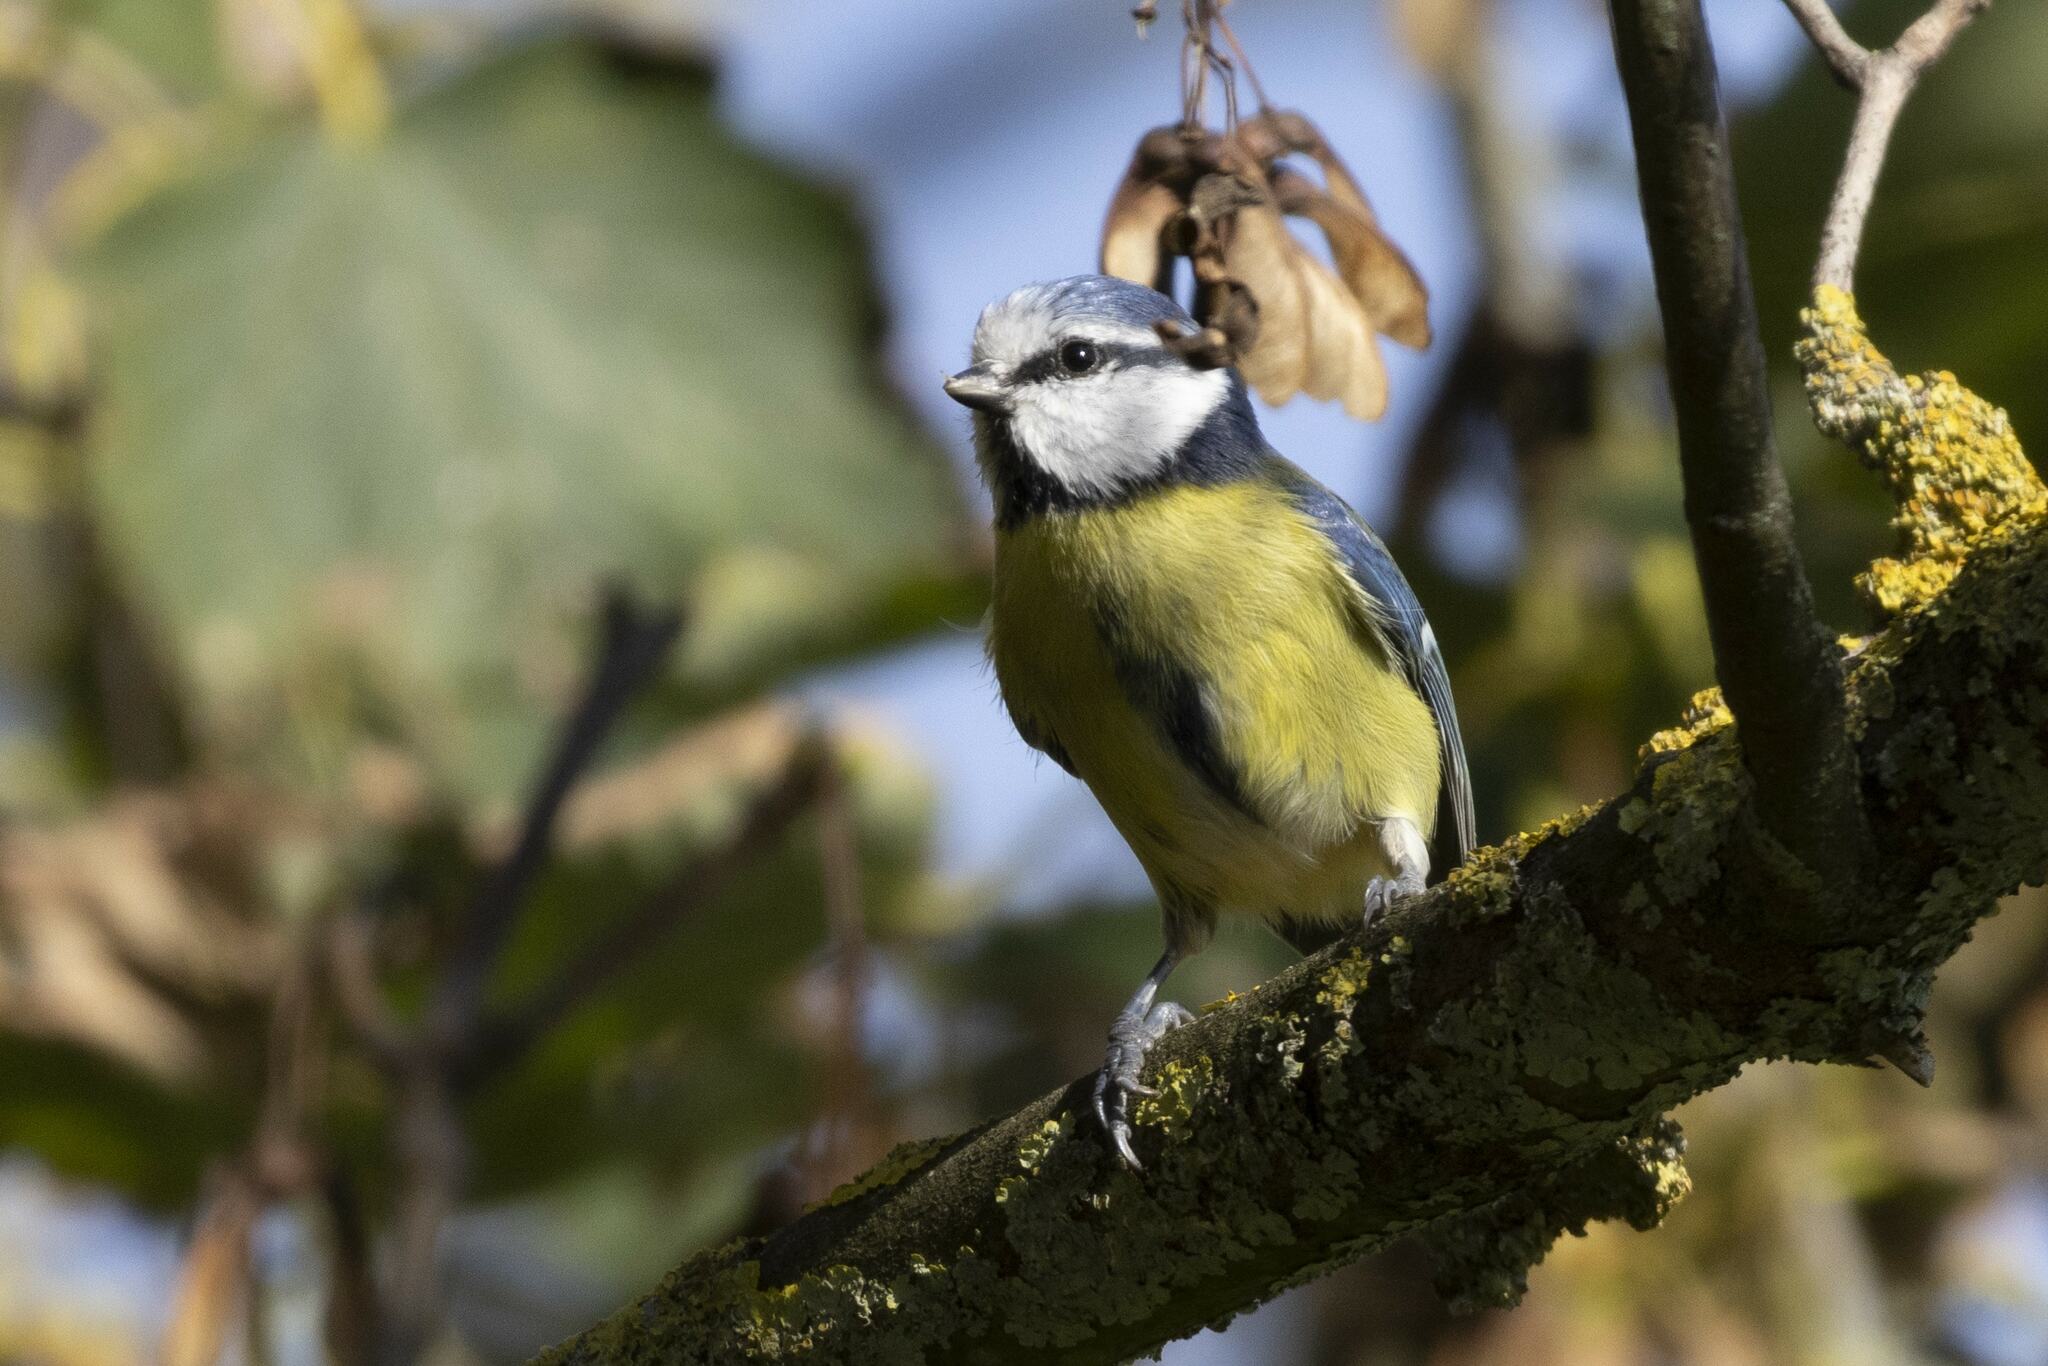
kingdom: Animalia
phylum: Chordata
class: Aves
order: Passeriformes
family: Paridae
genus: Cyanistes
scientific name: Cyanistes caeruleus
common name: Eurasian blue tit
